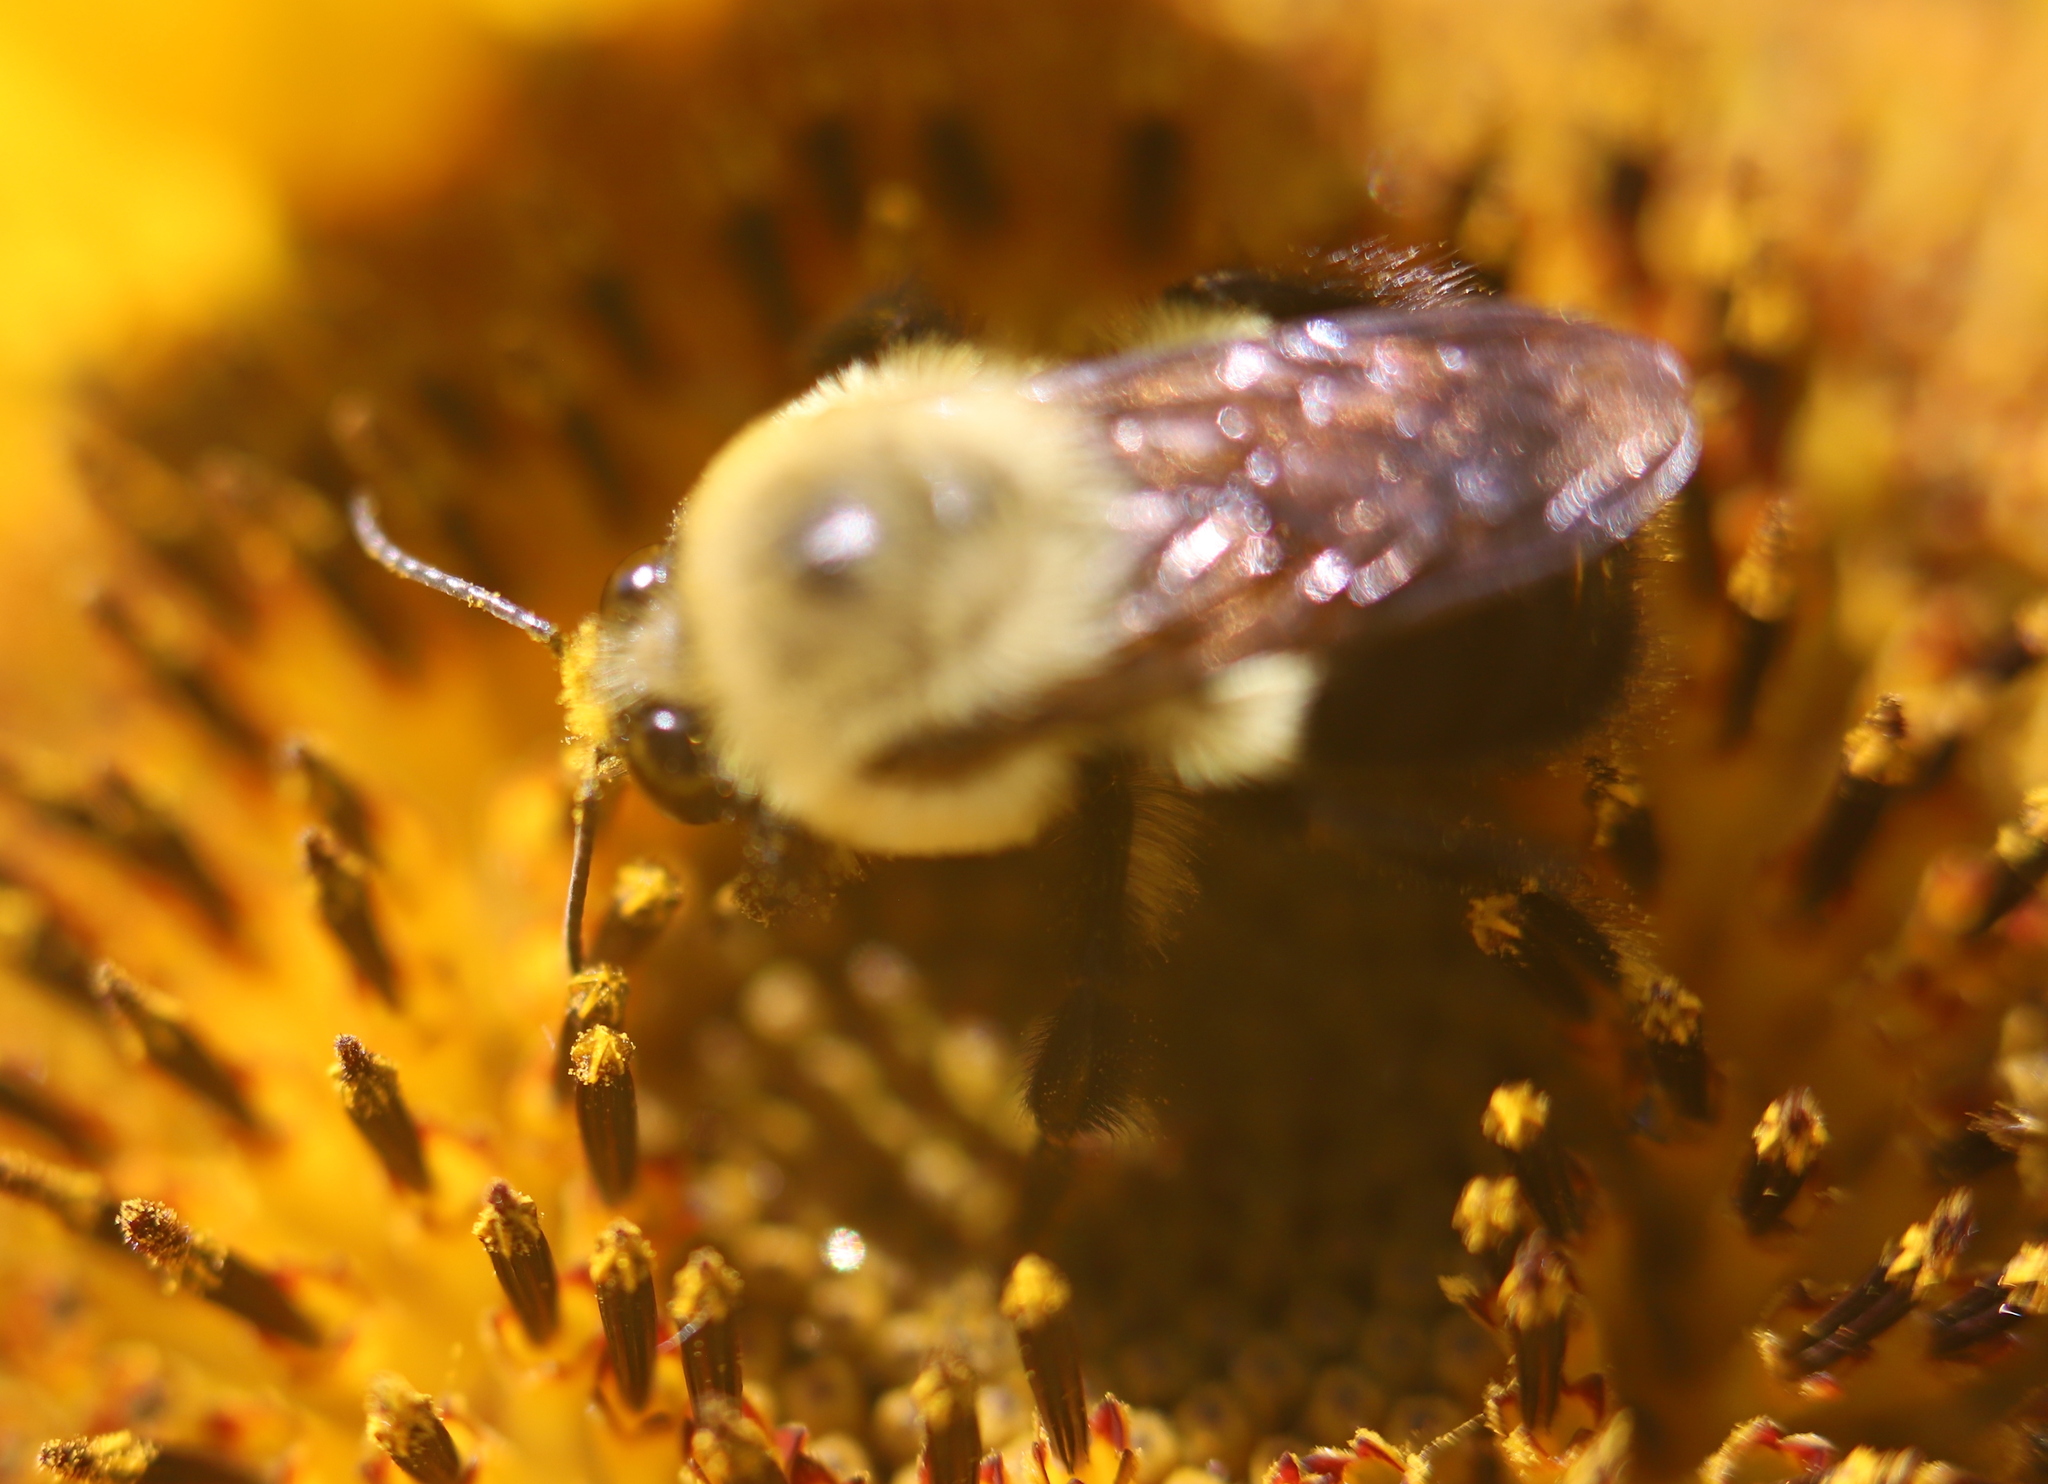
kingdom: Animalia
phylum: Arthropoda
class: Insecta
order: Hymenoptera
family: Apidae
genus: Bombus
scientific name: Bombus griseocollis
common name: Brown-belted bumble bee
